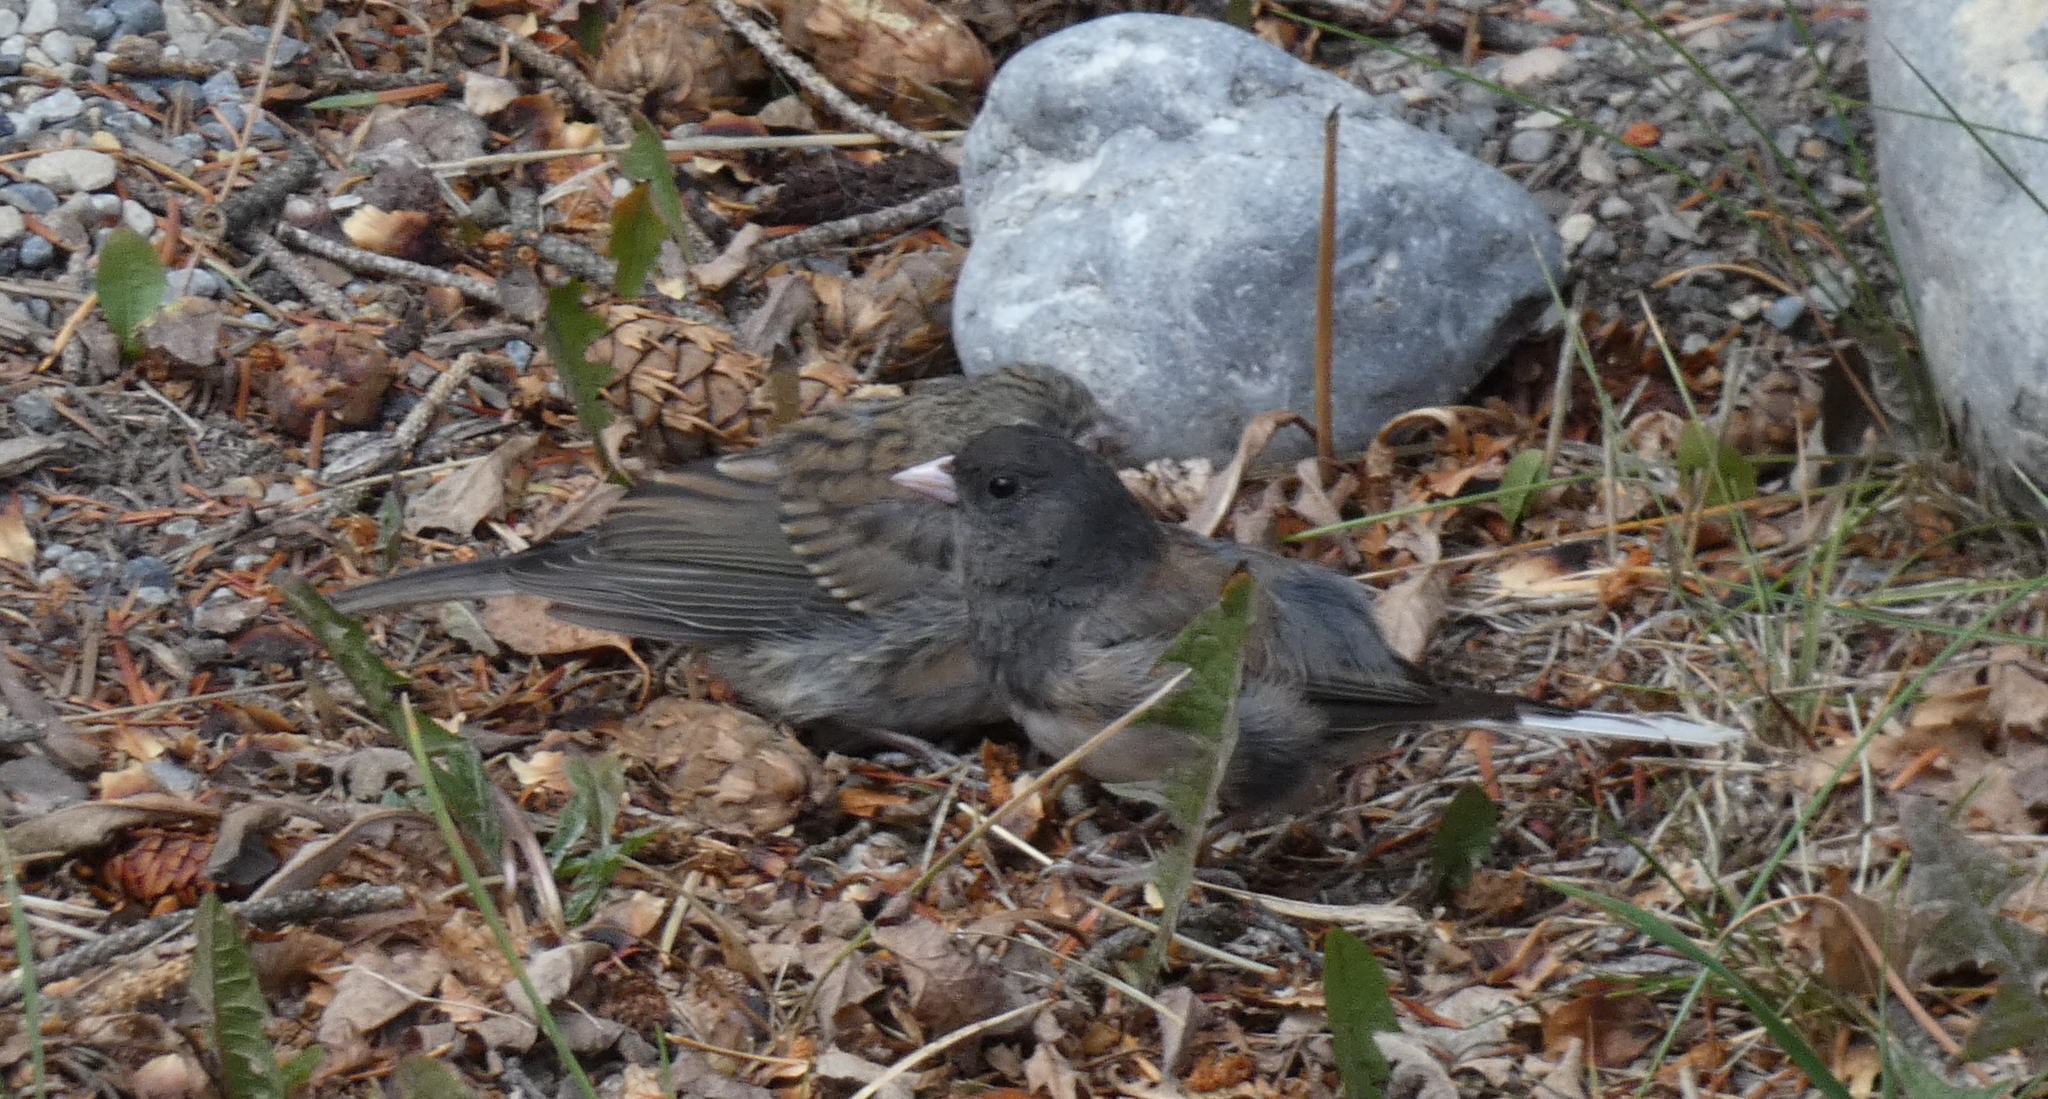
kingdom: Animalia
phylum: Chordata
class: Aves
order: Passeriformes
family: Passerellidae
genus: Junco
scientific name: Junco hyemalis
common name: Dark-eyed junco
